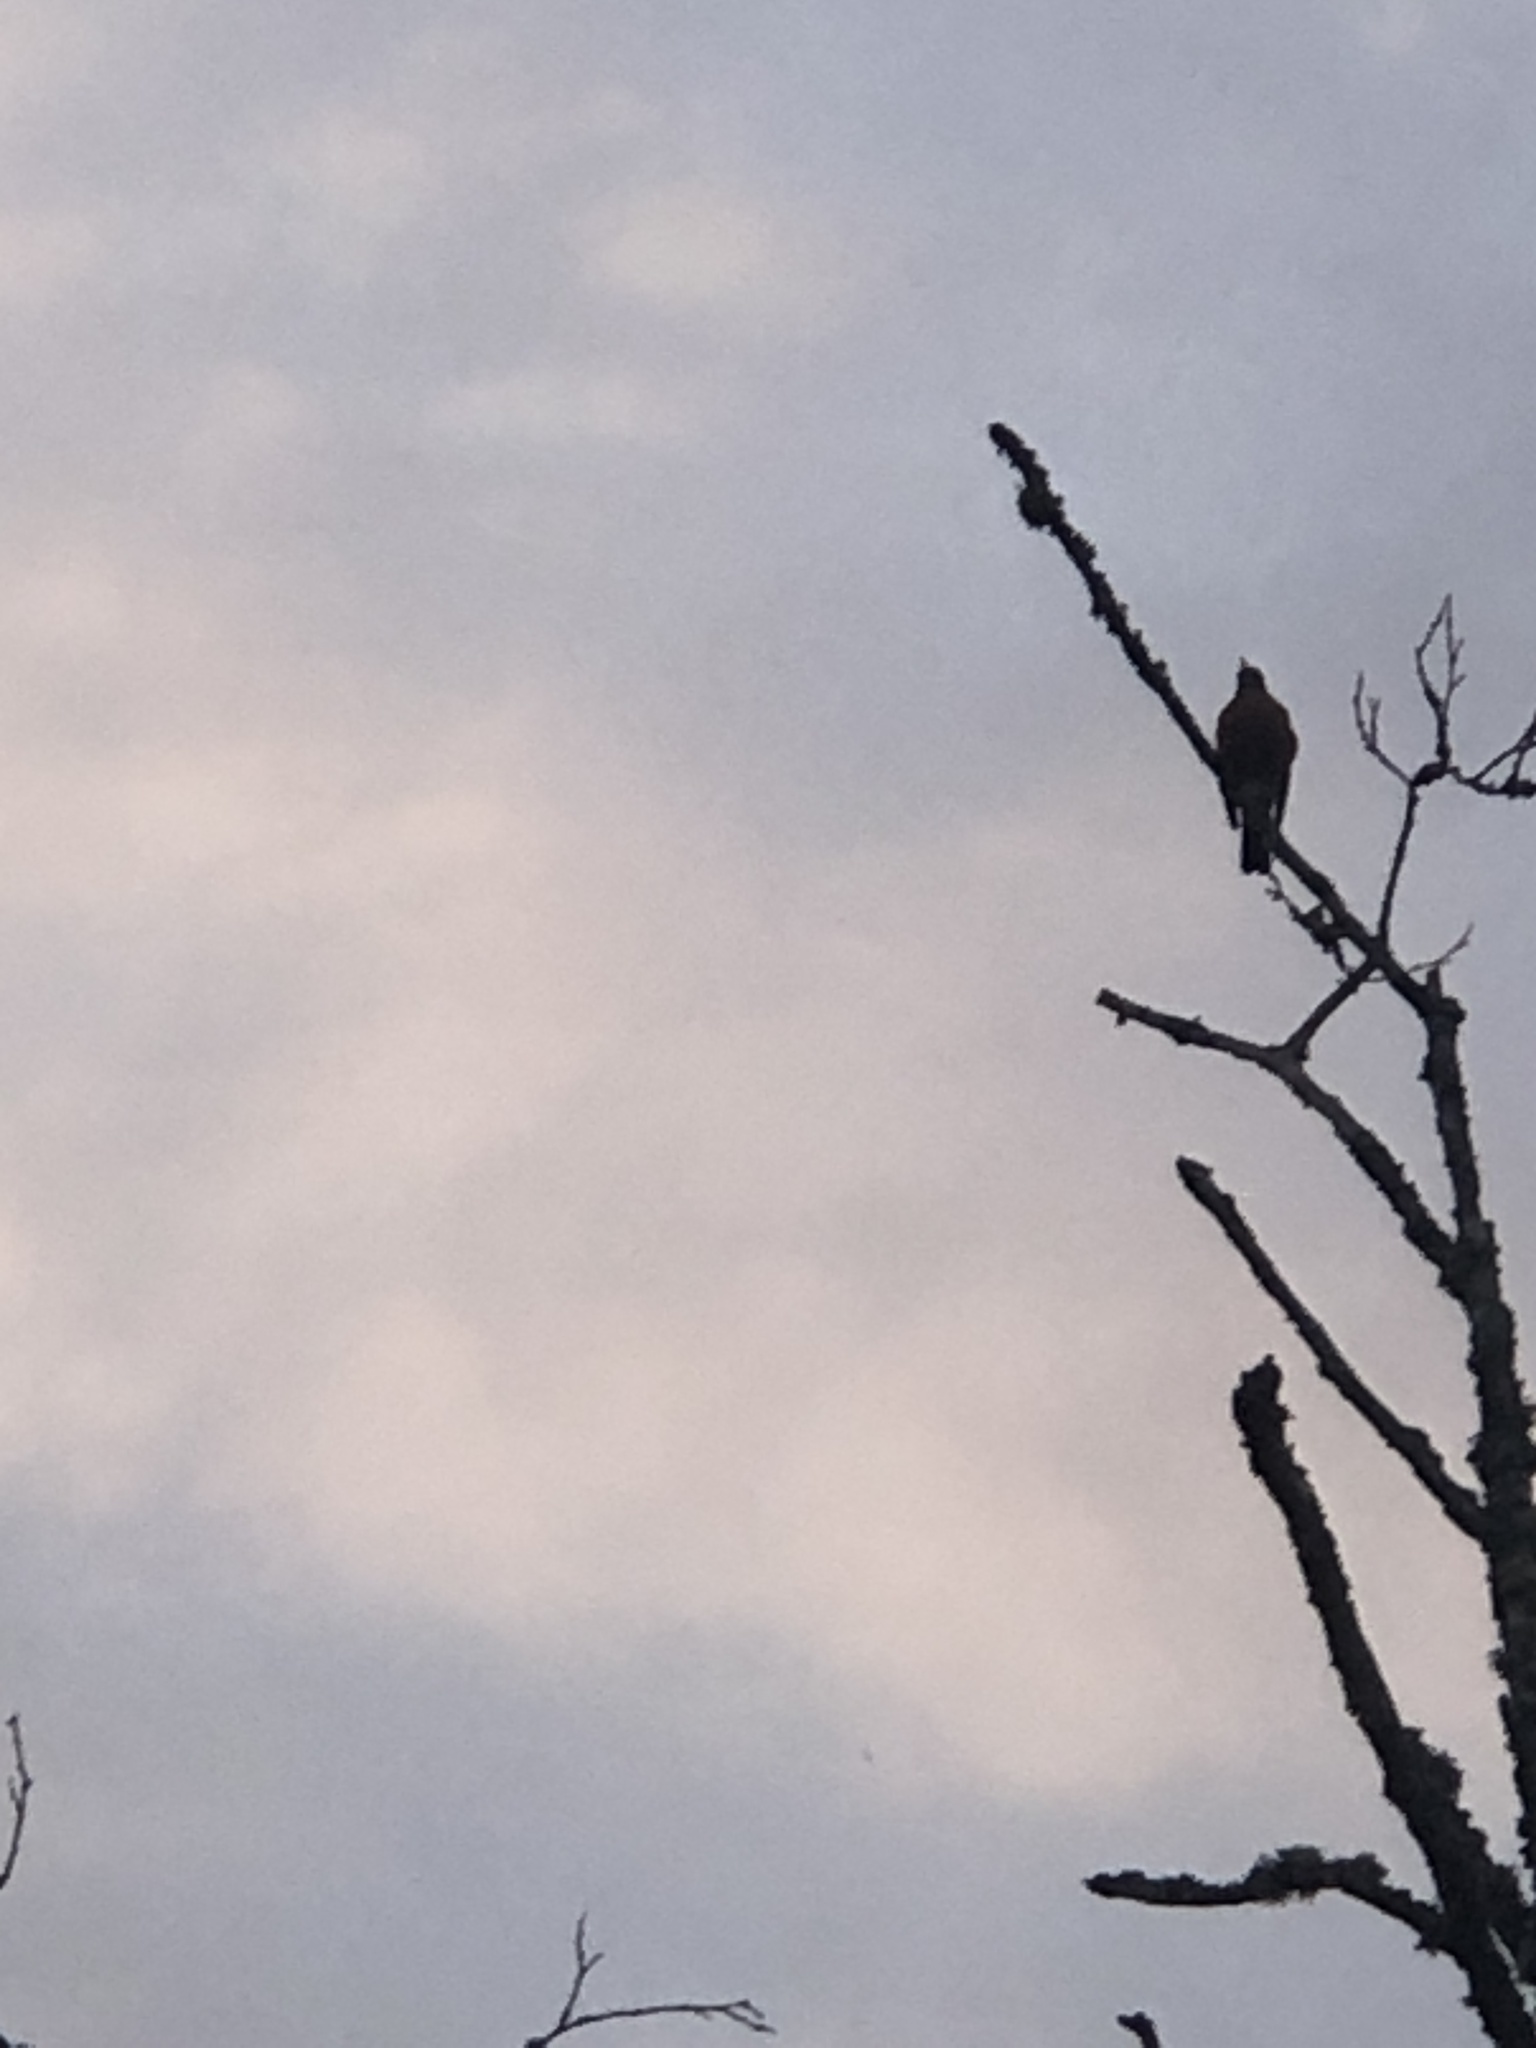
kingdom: Animalia
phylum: Chordata
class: Aves
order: Passeriformes
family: Turdidae
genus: Turdus
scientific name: Turdus migratorius
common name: American robin
